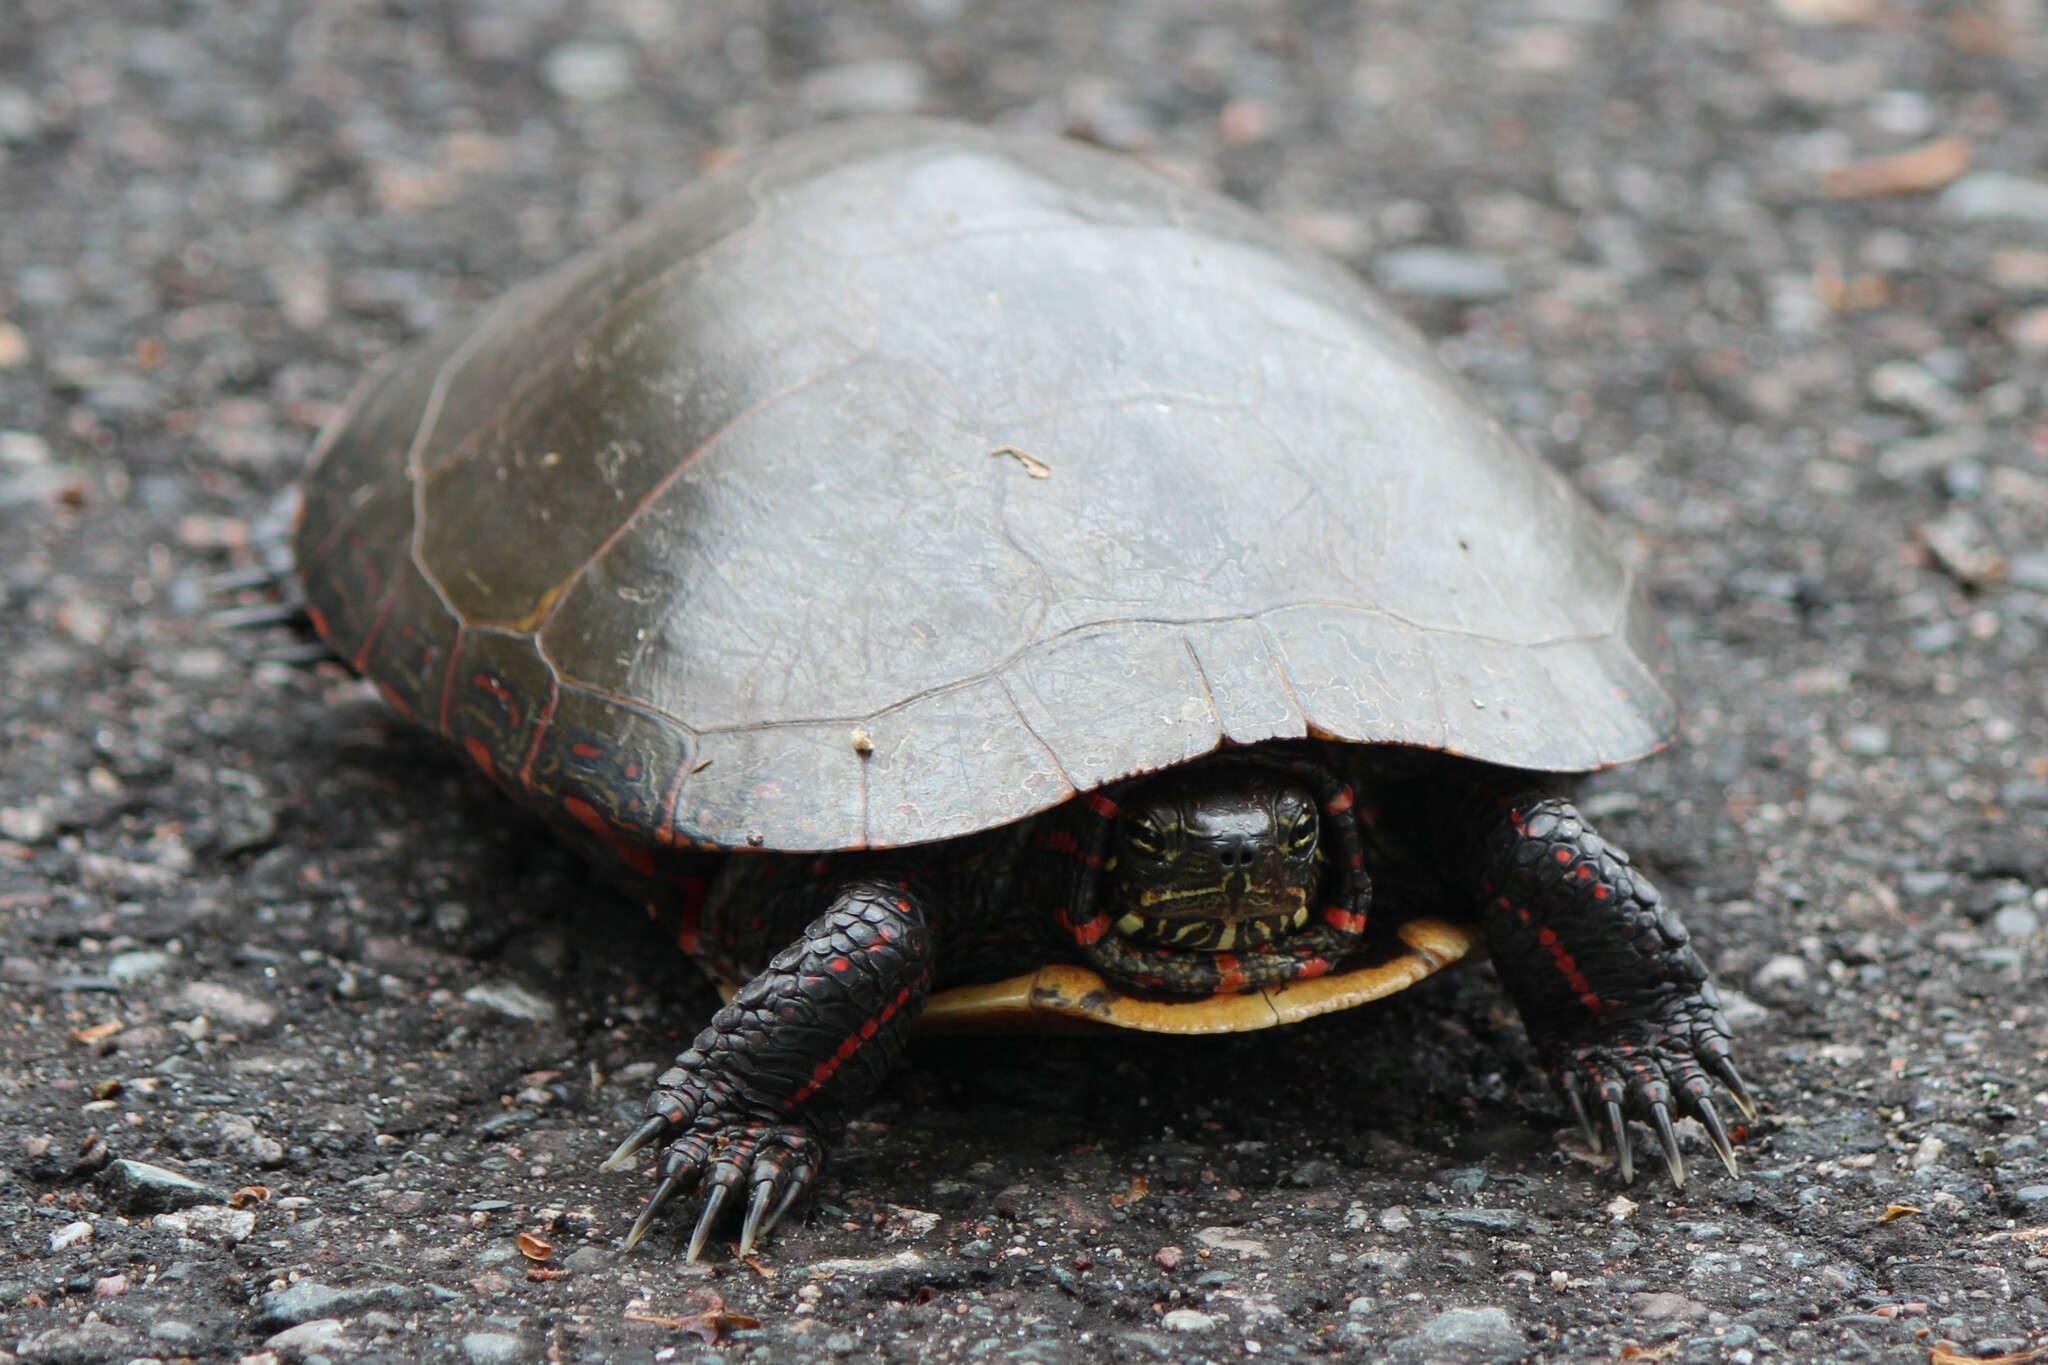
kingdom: Animalia
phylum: Chordata
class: Testudines
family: Emydidae
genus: Chrysemys
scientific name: Chrysemys picta
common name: Painted turtle
